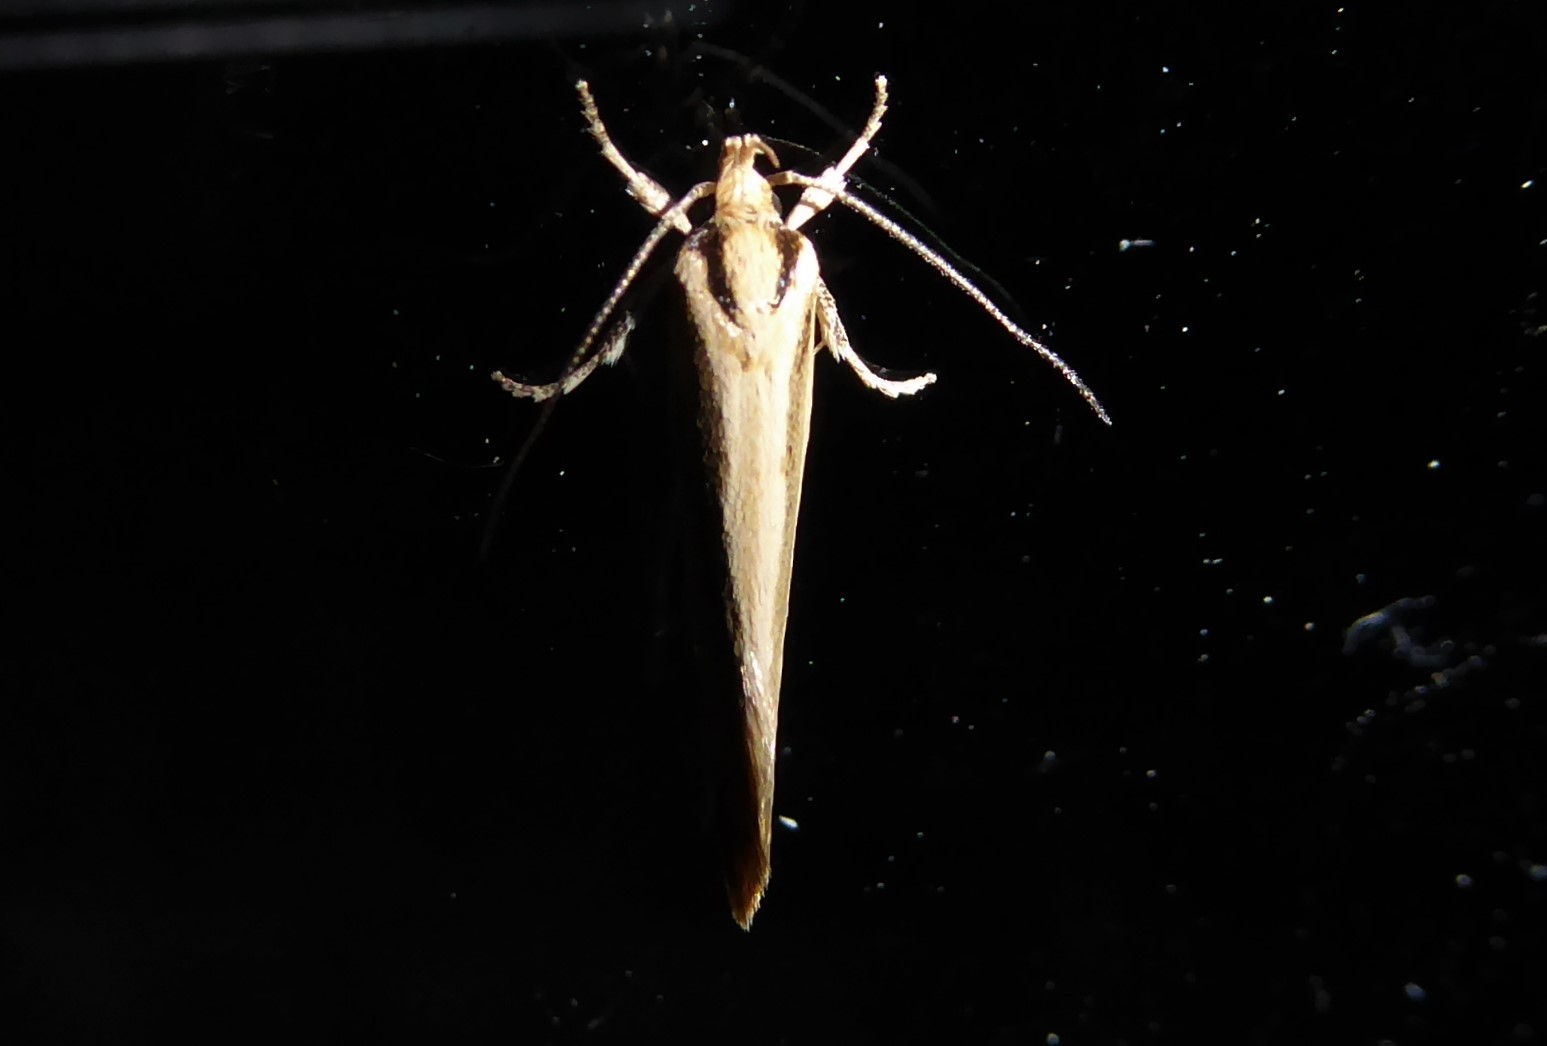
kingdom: Animalia
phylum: Arthropoda
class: Insecta
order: Lepidoptera
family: Oecophoridae
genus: Tingena
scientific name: Tingena chloradelpha
